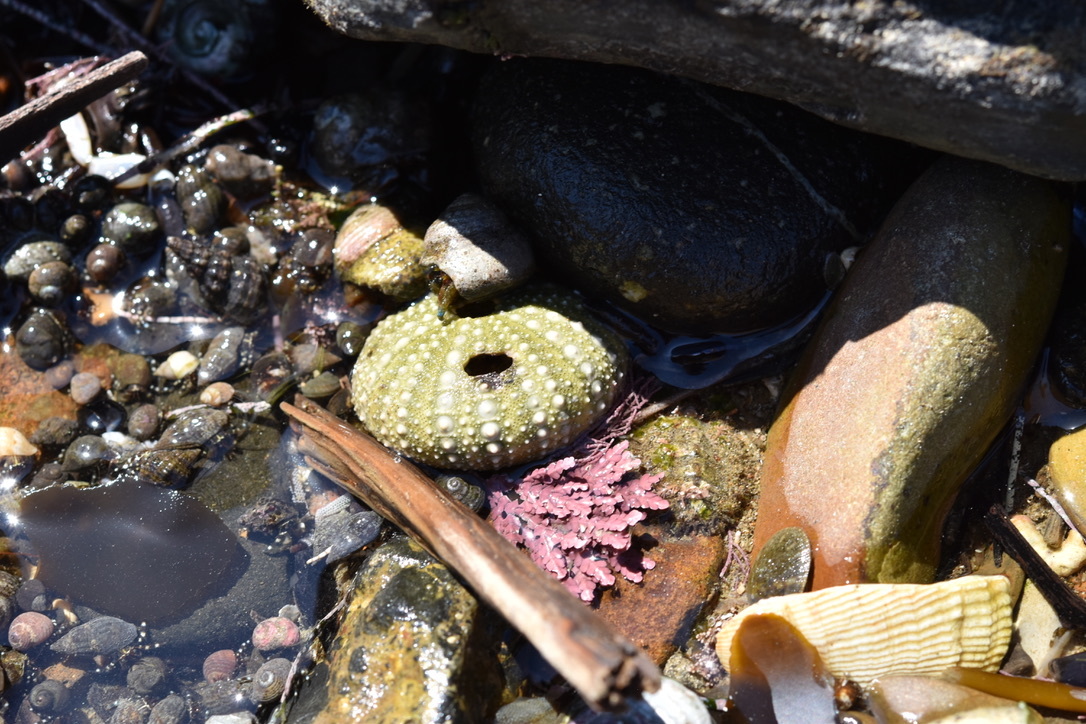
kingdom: Animalia
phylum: Echinodermata
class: Echinoidea
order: Camarodonta
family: Strongylocentrotidae
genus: Strongylocentrotus
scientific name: Strongylocentrotus purpuratus
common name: Purple sea urchin
